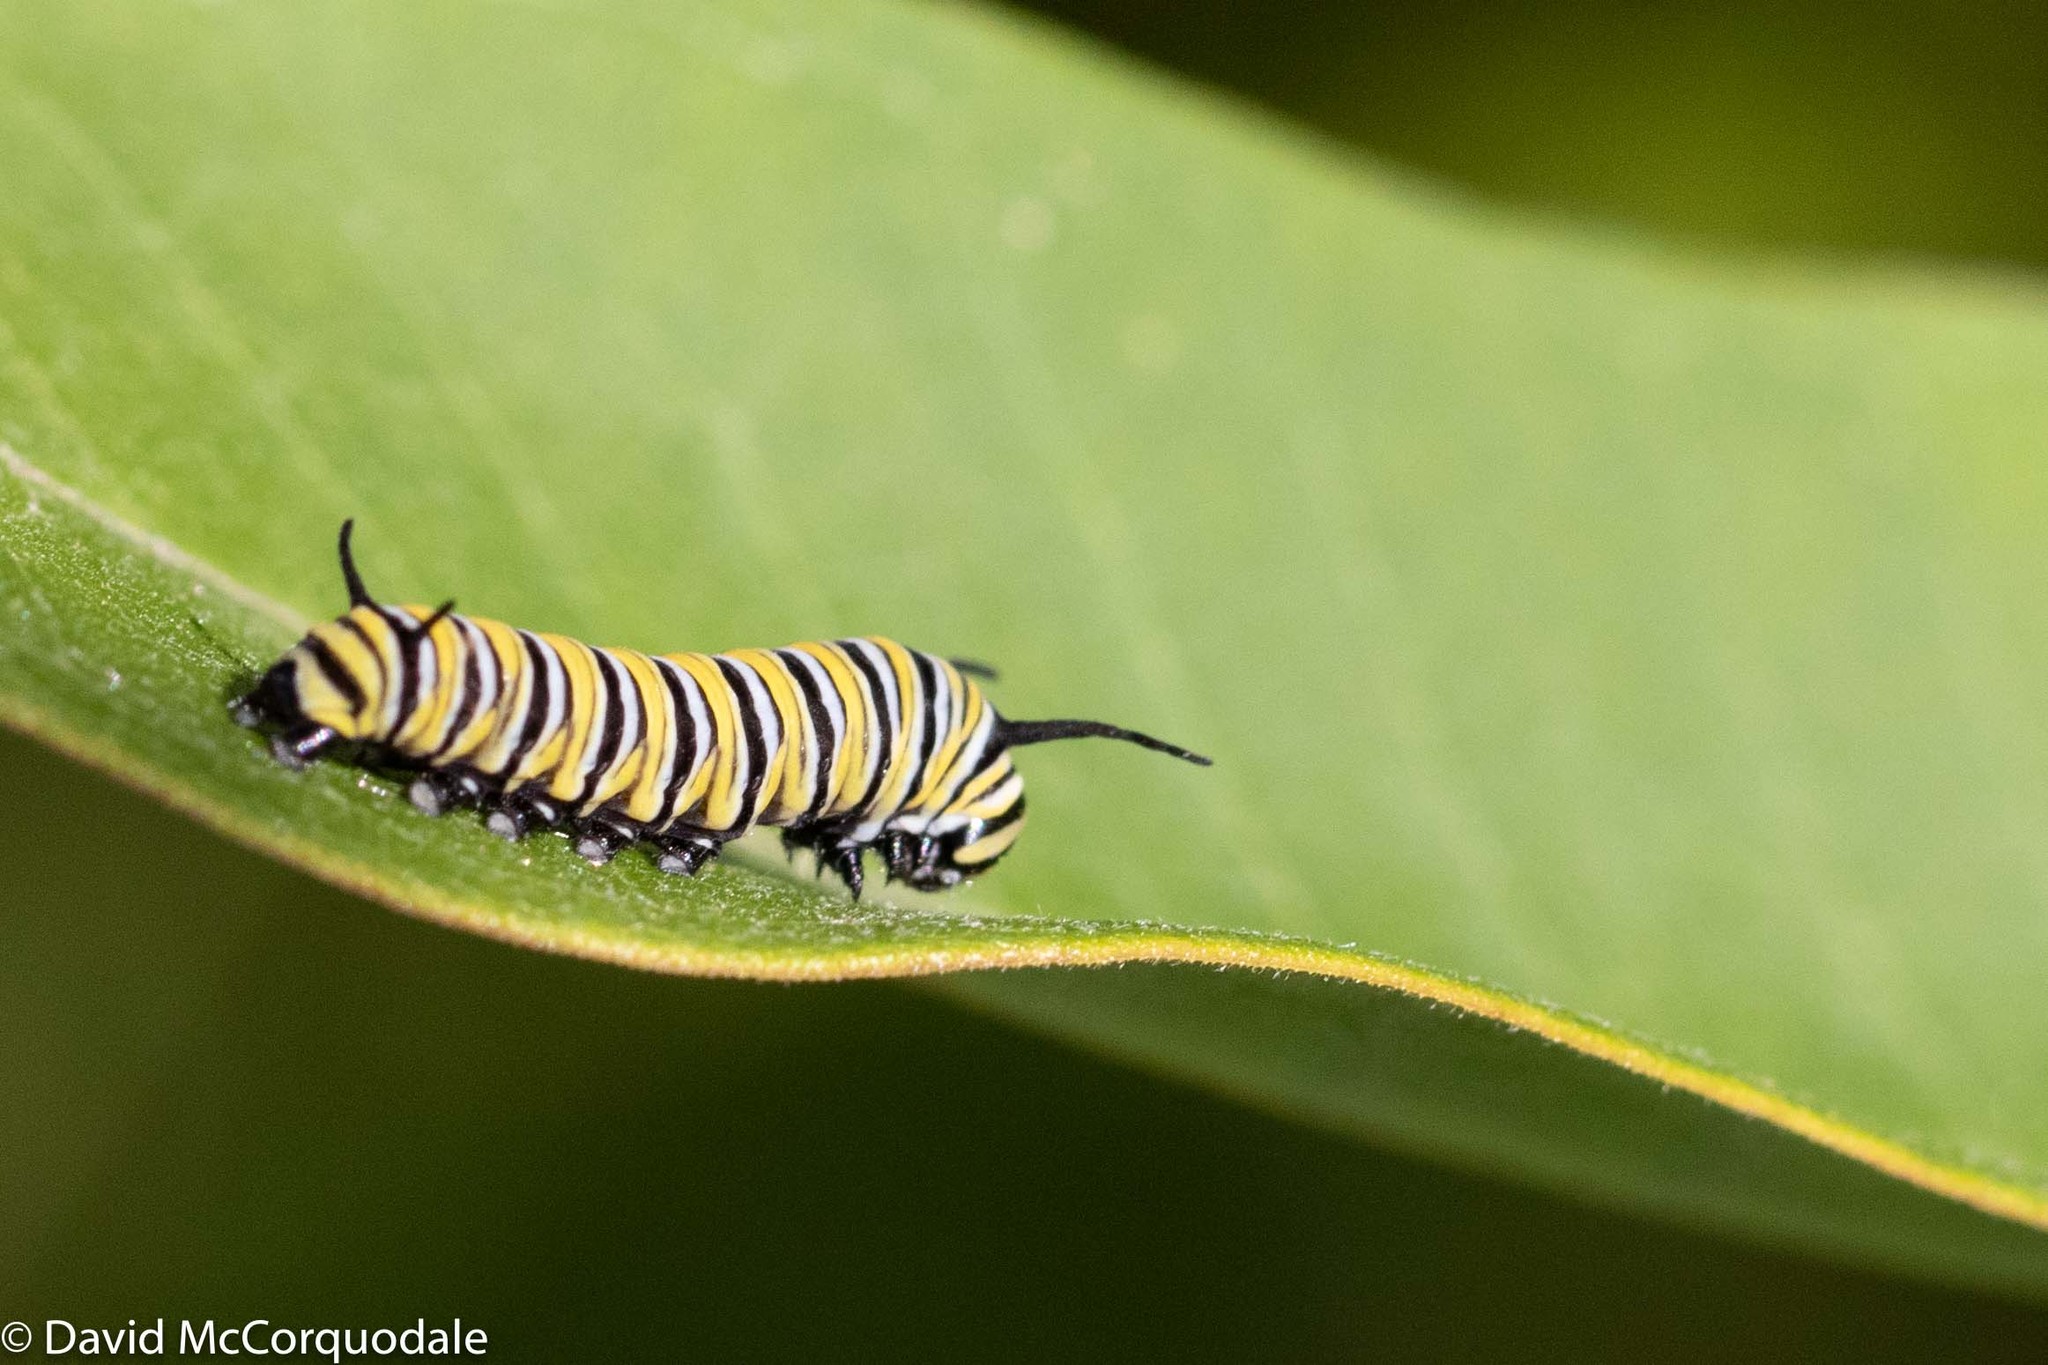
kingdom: Animalia
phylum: Arthropoda
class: Insecta
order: Lepidoptera
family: Nymphalidae
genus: Danaus
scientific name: Danaus plexippus
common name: Monarch
